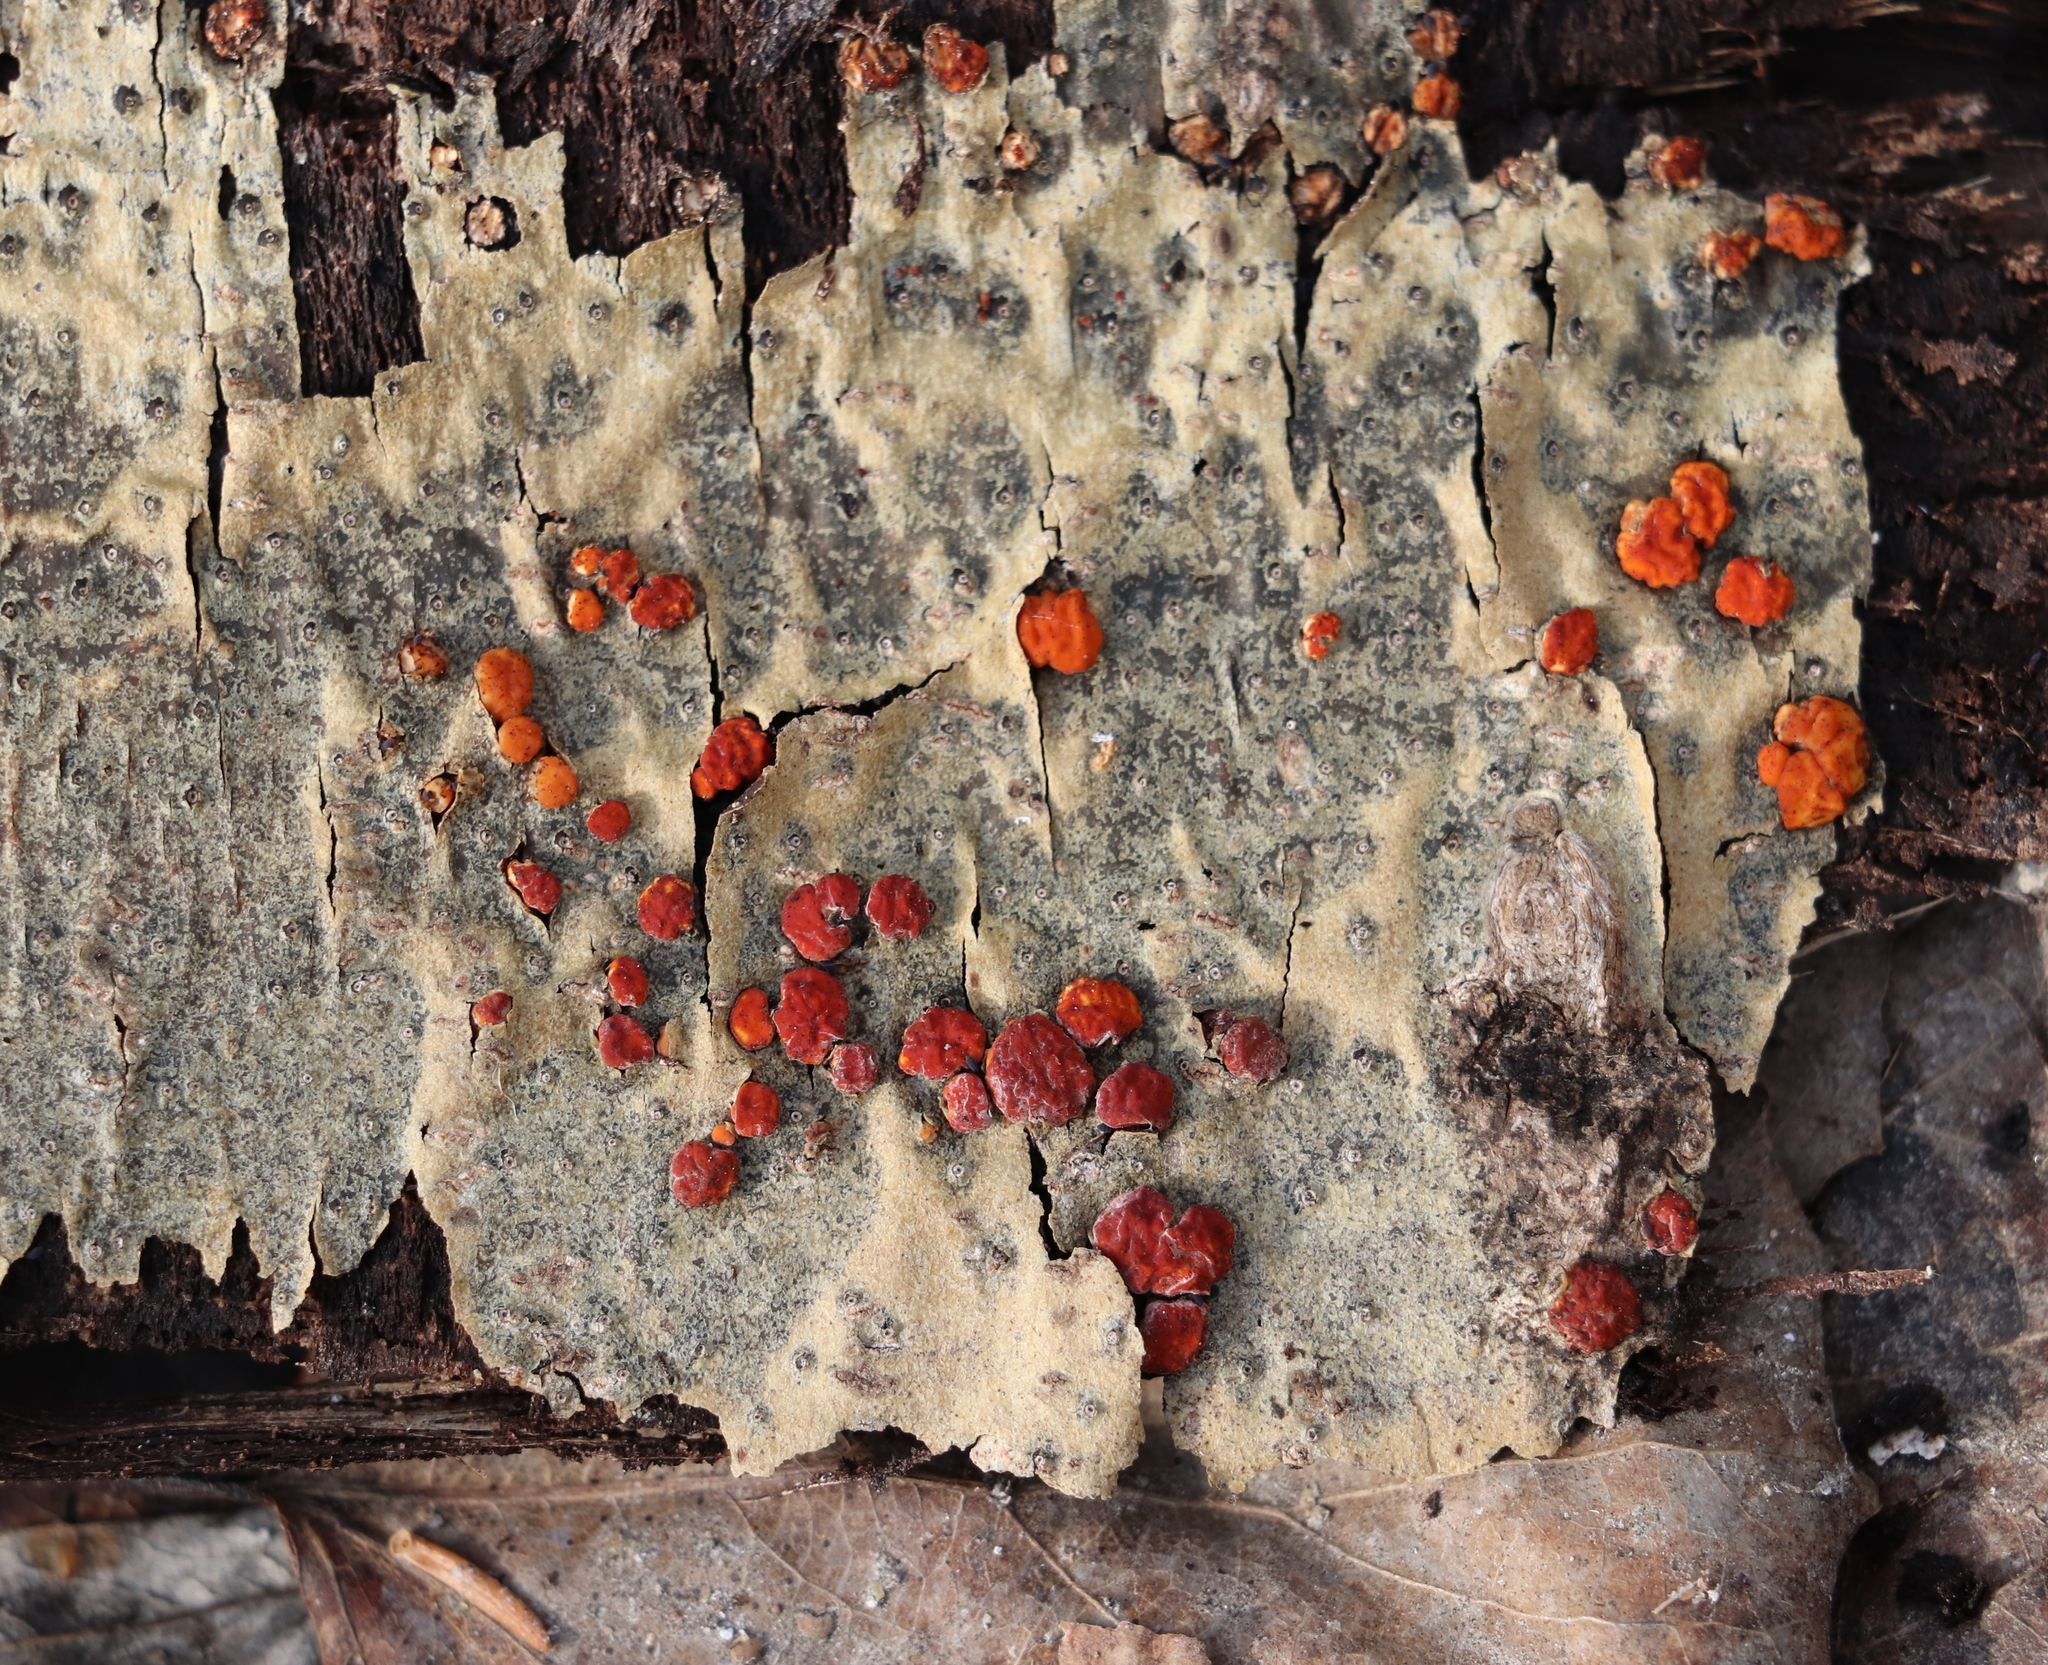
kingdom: Fungi
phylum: Basidiomycota
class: Agaricomycetes
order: Russulales
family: Peniophoraceae
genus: Peniophora
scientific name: Peniophora rufa
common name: Red tree brain fungus
